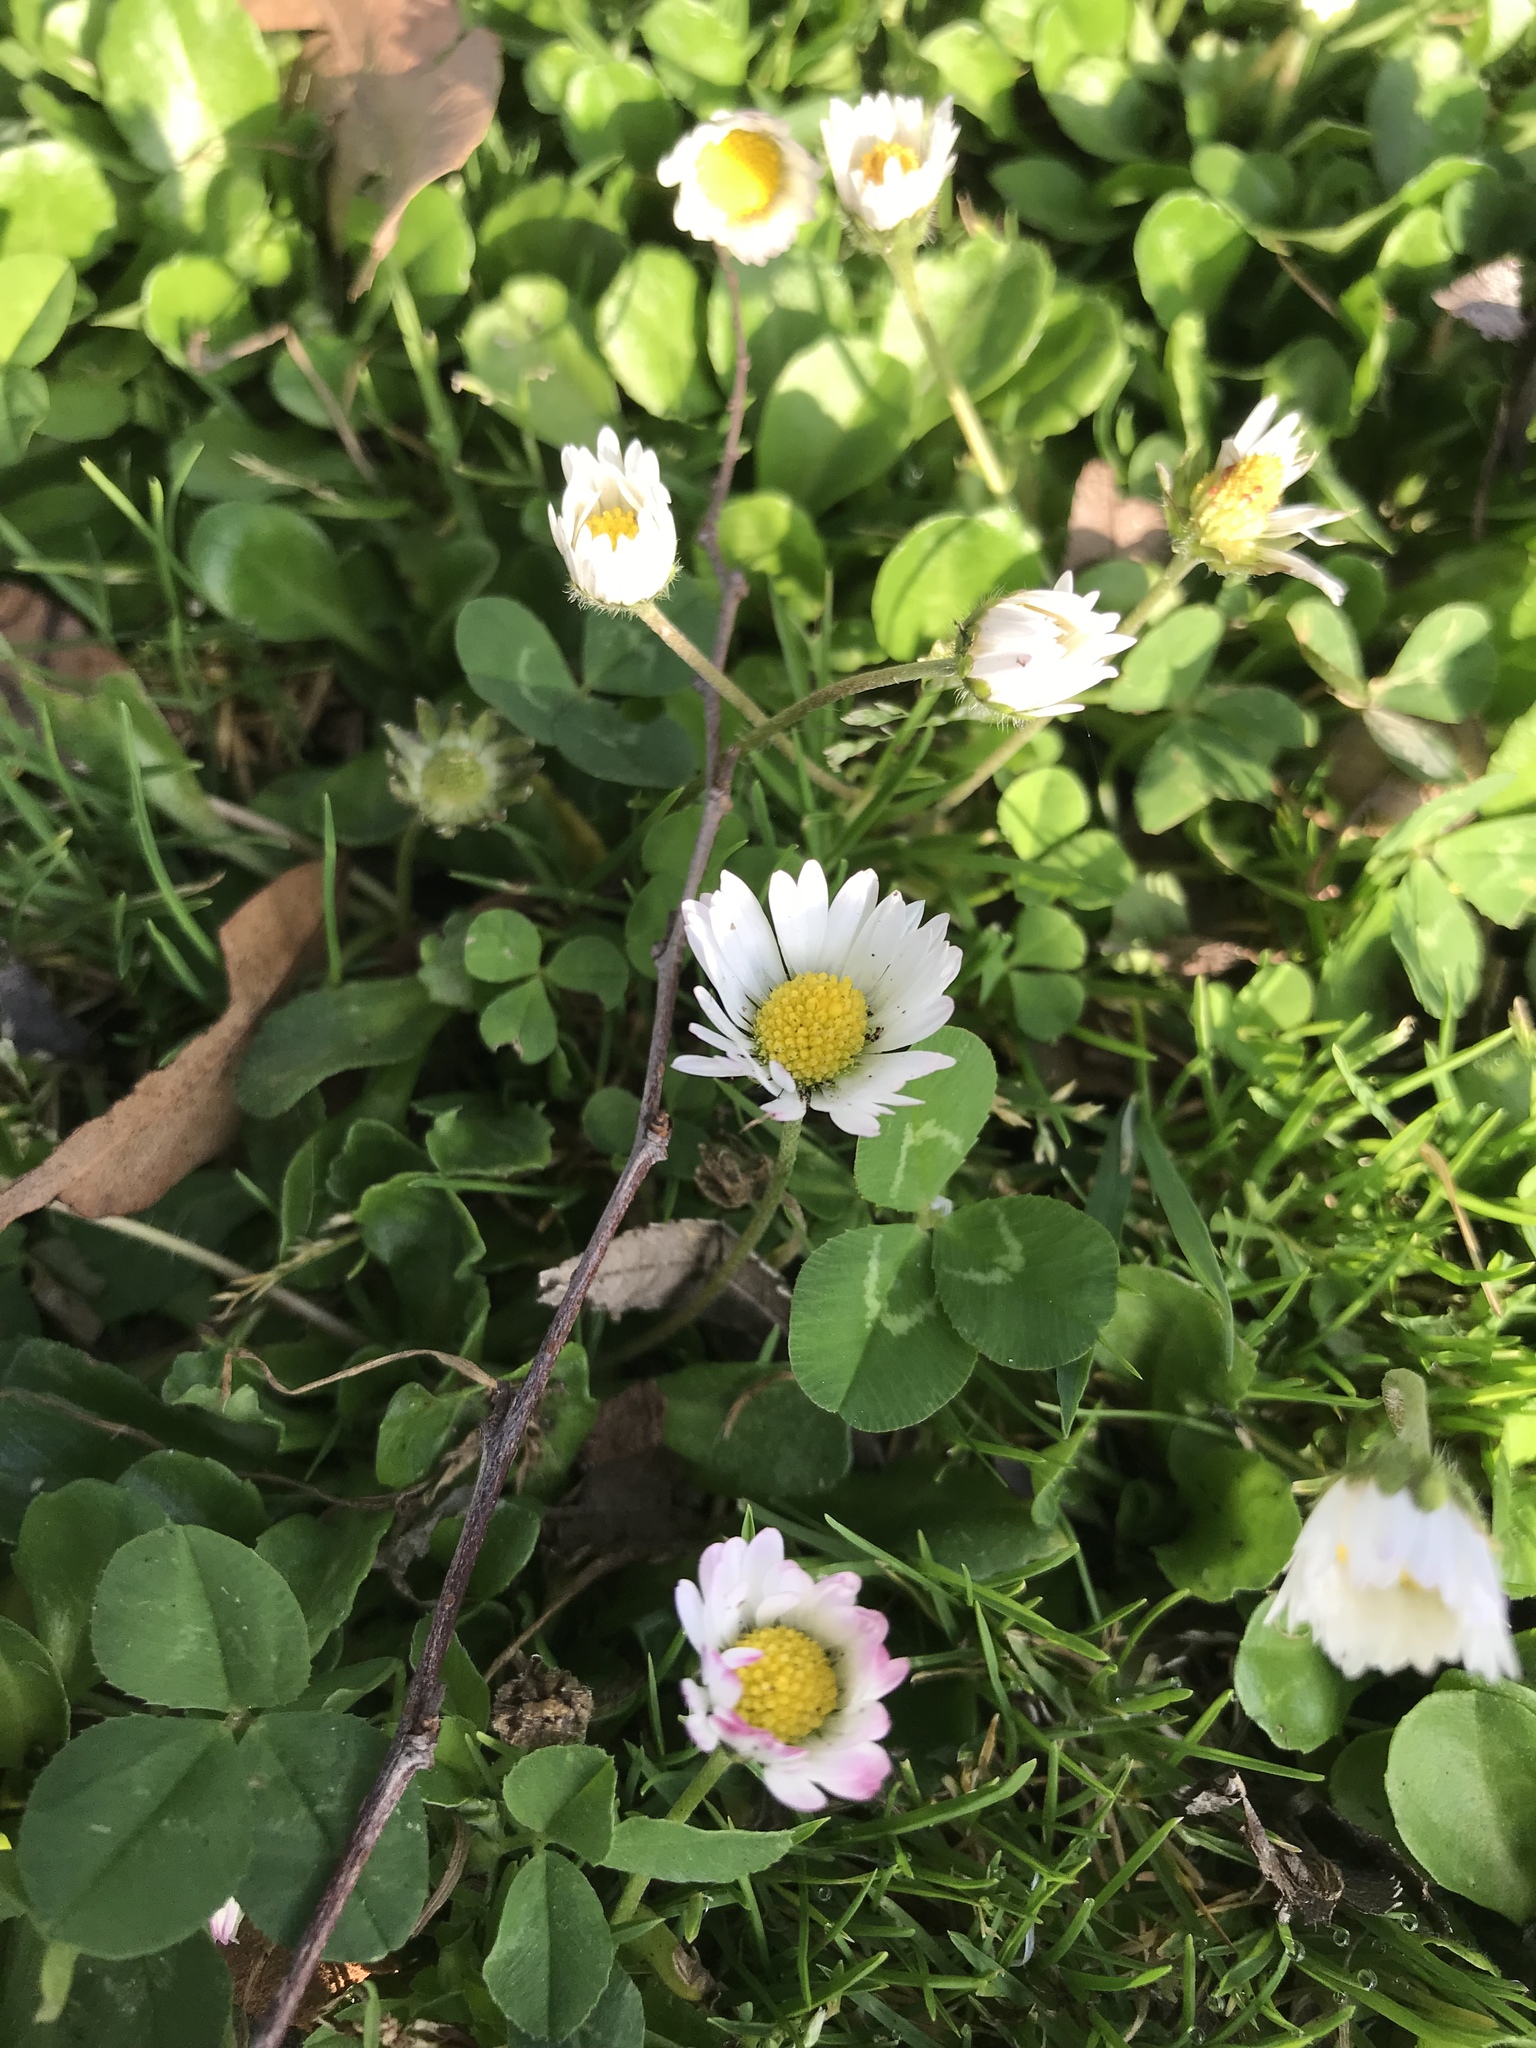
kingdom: Plantae
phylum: Tracheophyta
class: Magnoliopsida
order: Asterales
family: Asteraceae
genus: Bellis
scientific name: Bellis perennis
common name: Lawndaisy
